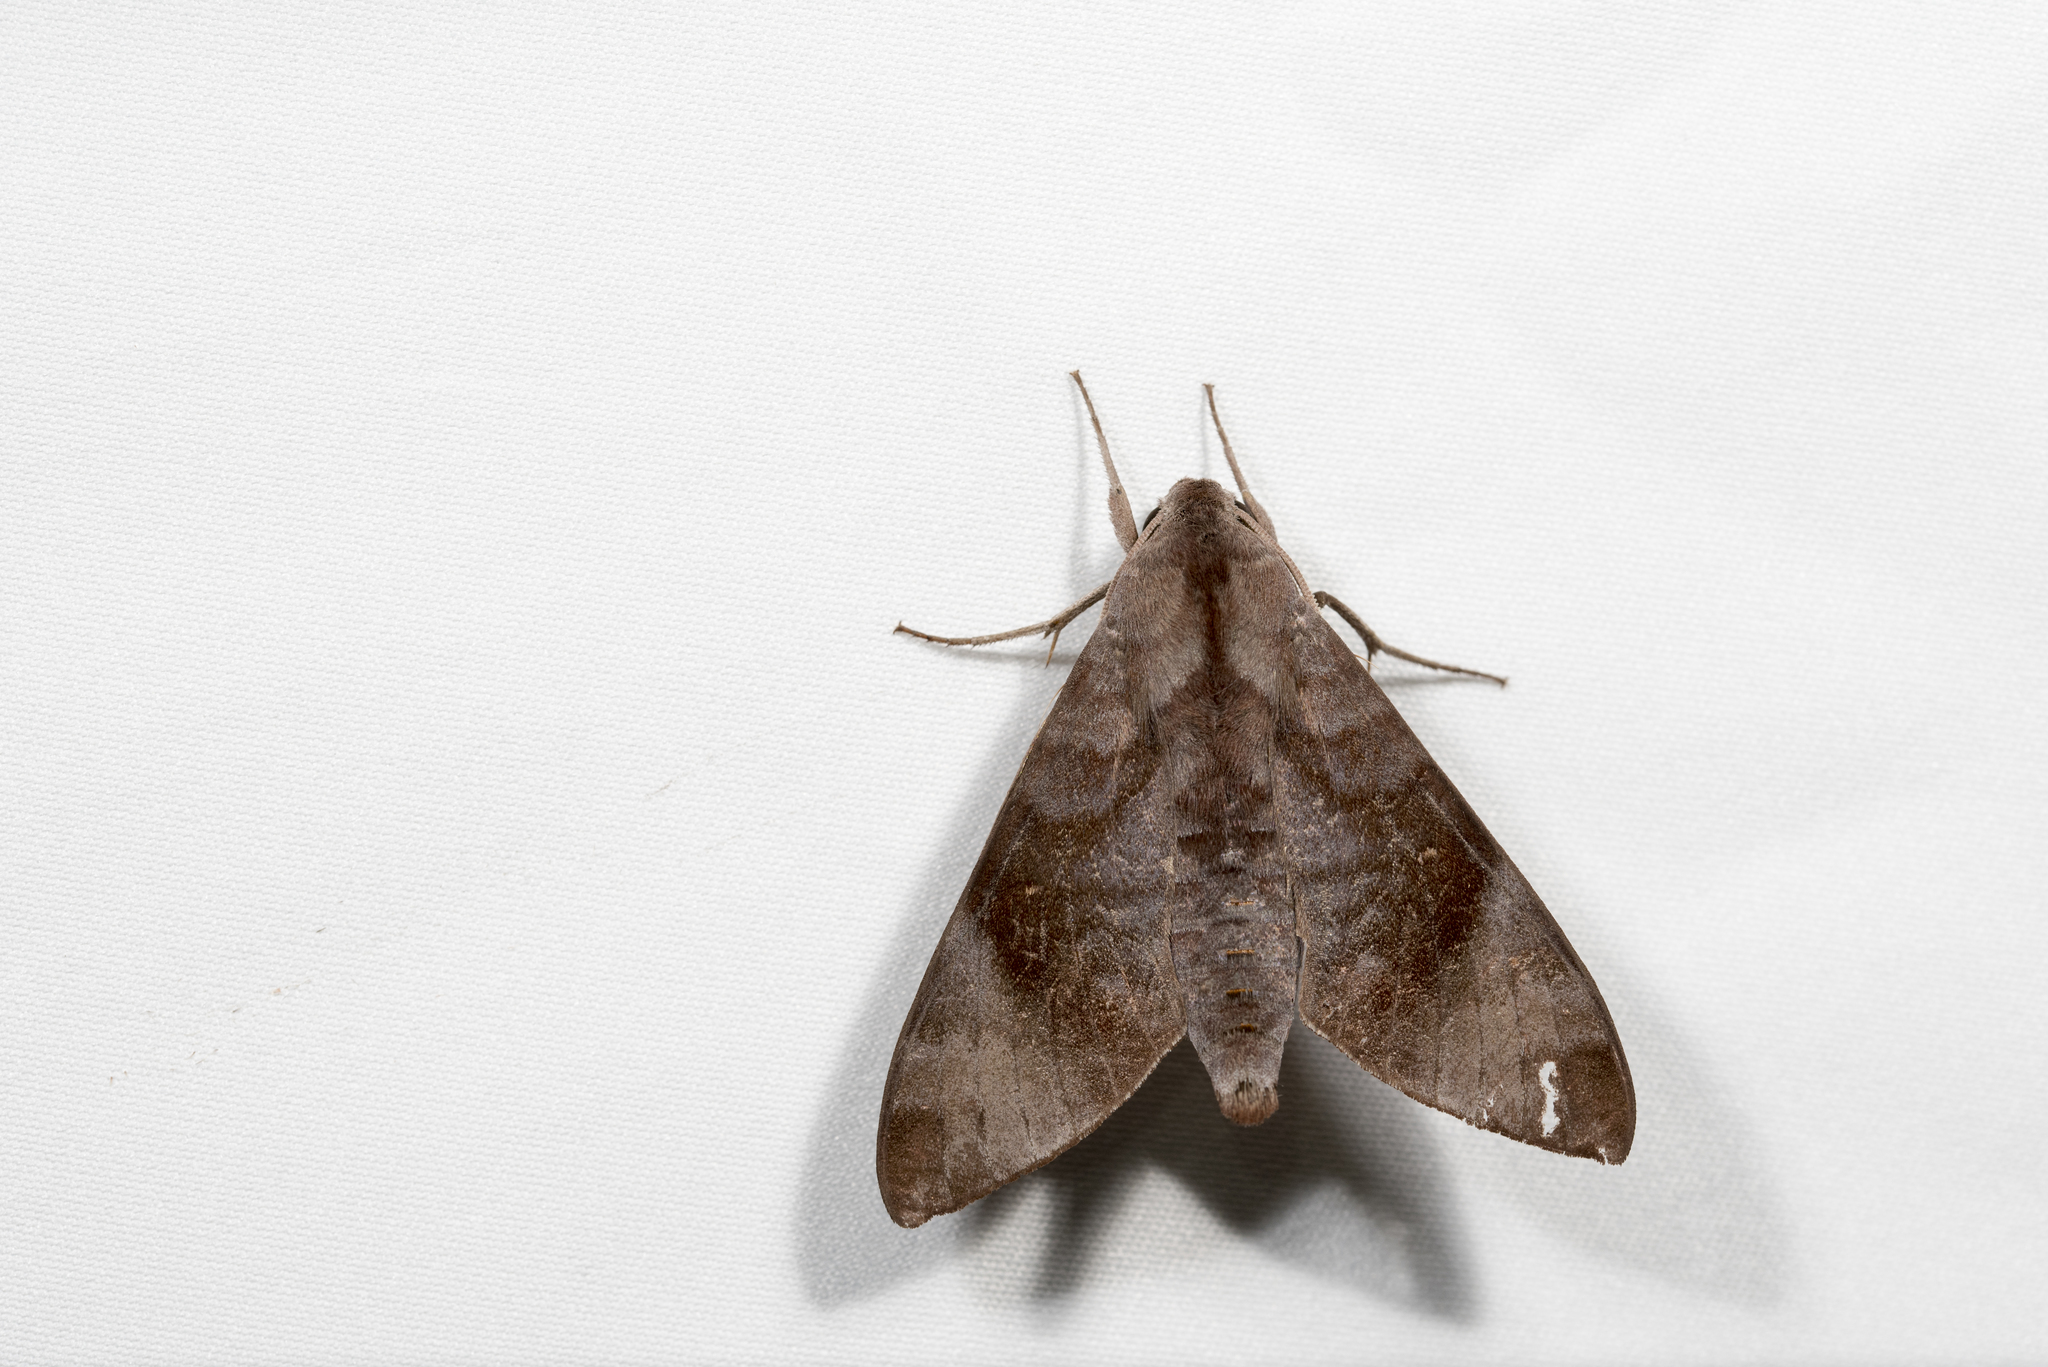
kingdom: Animalia
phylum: Arthropoda
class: Insecta
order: Lepidoptera
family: Sphingidae
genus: Acosmeryx
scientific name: Acosmeryx formosana
